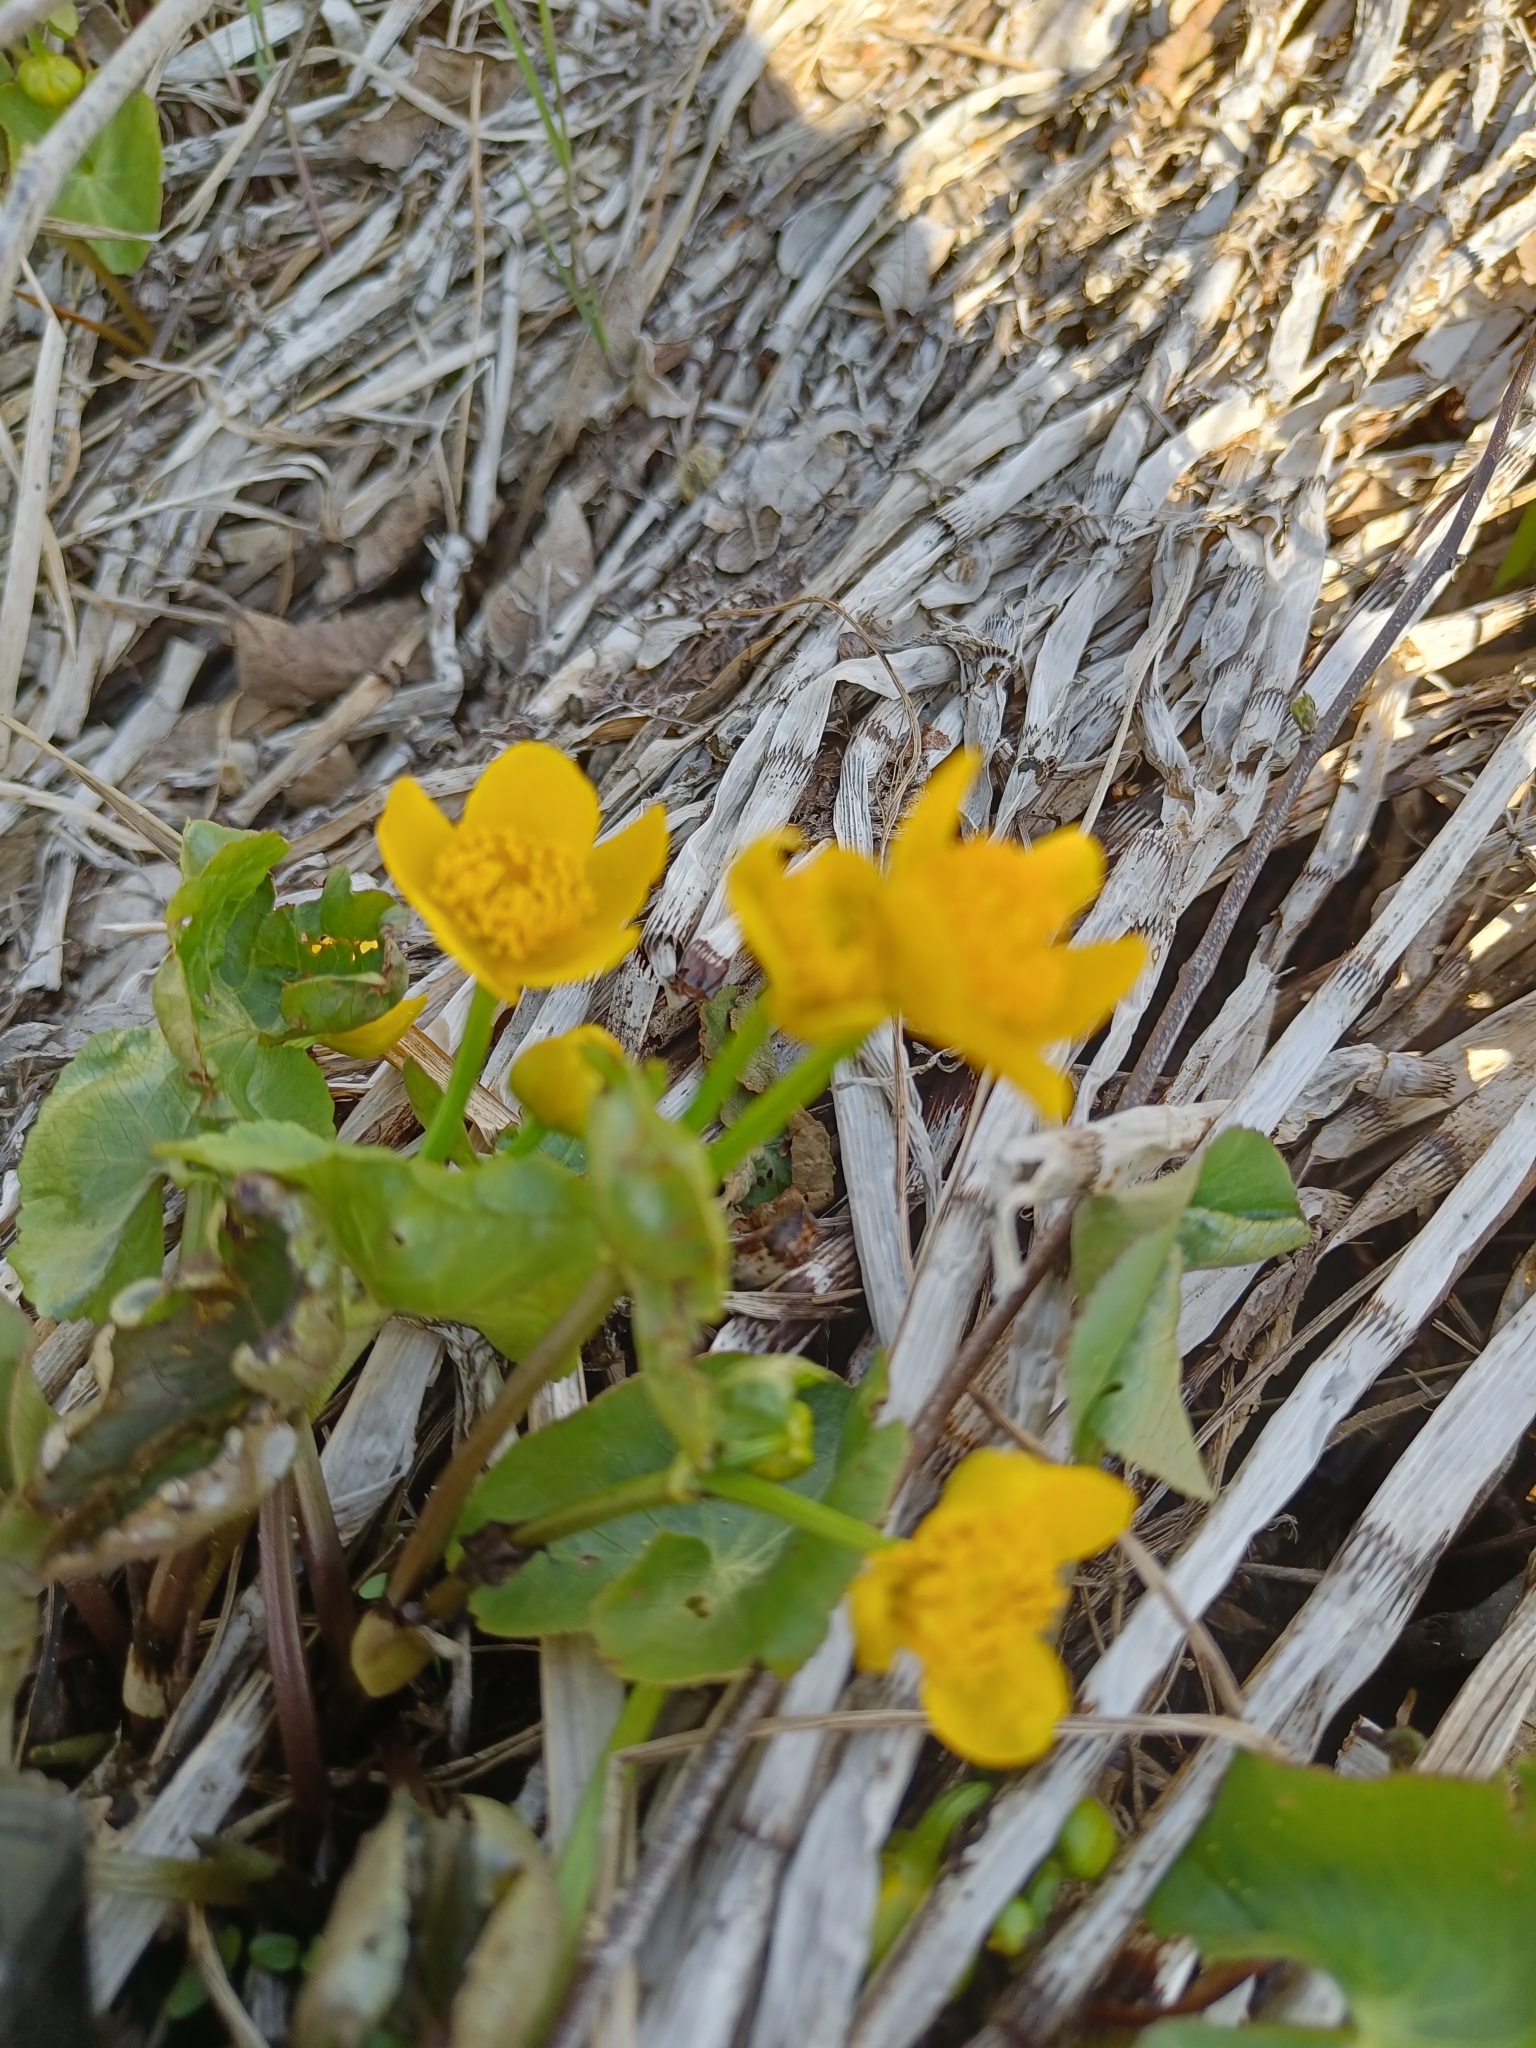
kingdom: Plantae
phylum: Tracheophyta
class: Magnoliopsida
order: Ranunculales
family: Ranunculaceae
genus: Caltha
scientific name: Caltha palustris
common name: Marsh marigold
